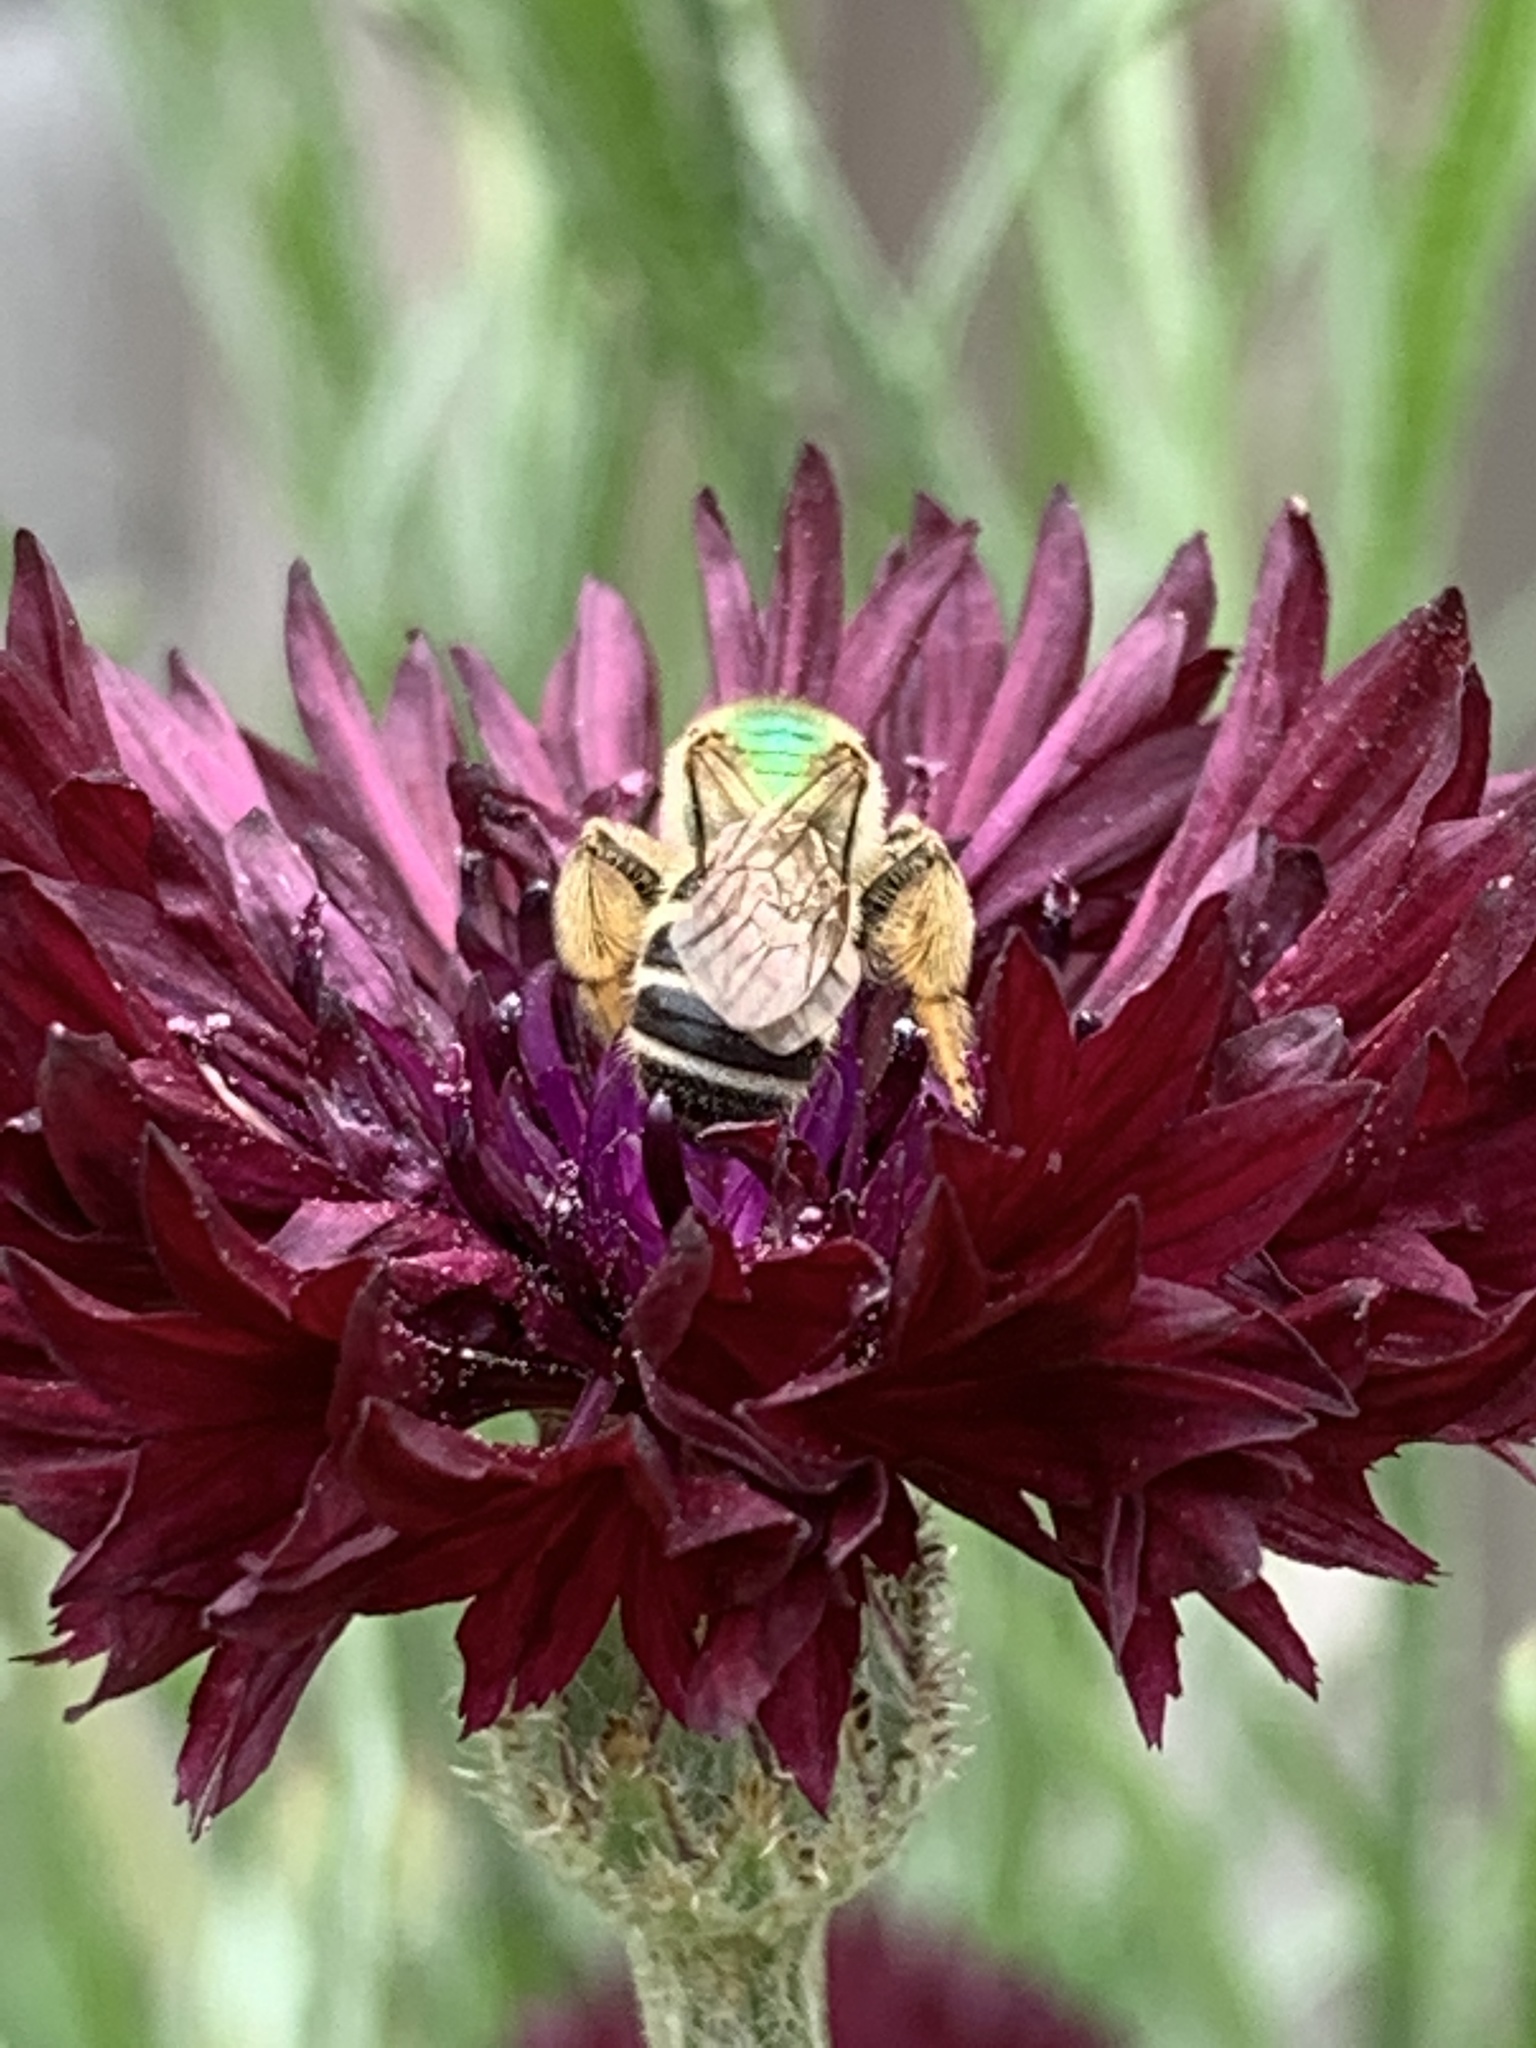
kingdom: Animalia
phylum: Arthropoda
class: Insecta
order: Hymenoptera
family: Halictidae
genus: Agapostemon
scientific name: Agapostemon virescens
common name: Bicolored striped sweat bee
